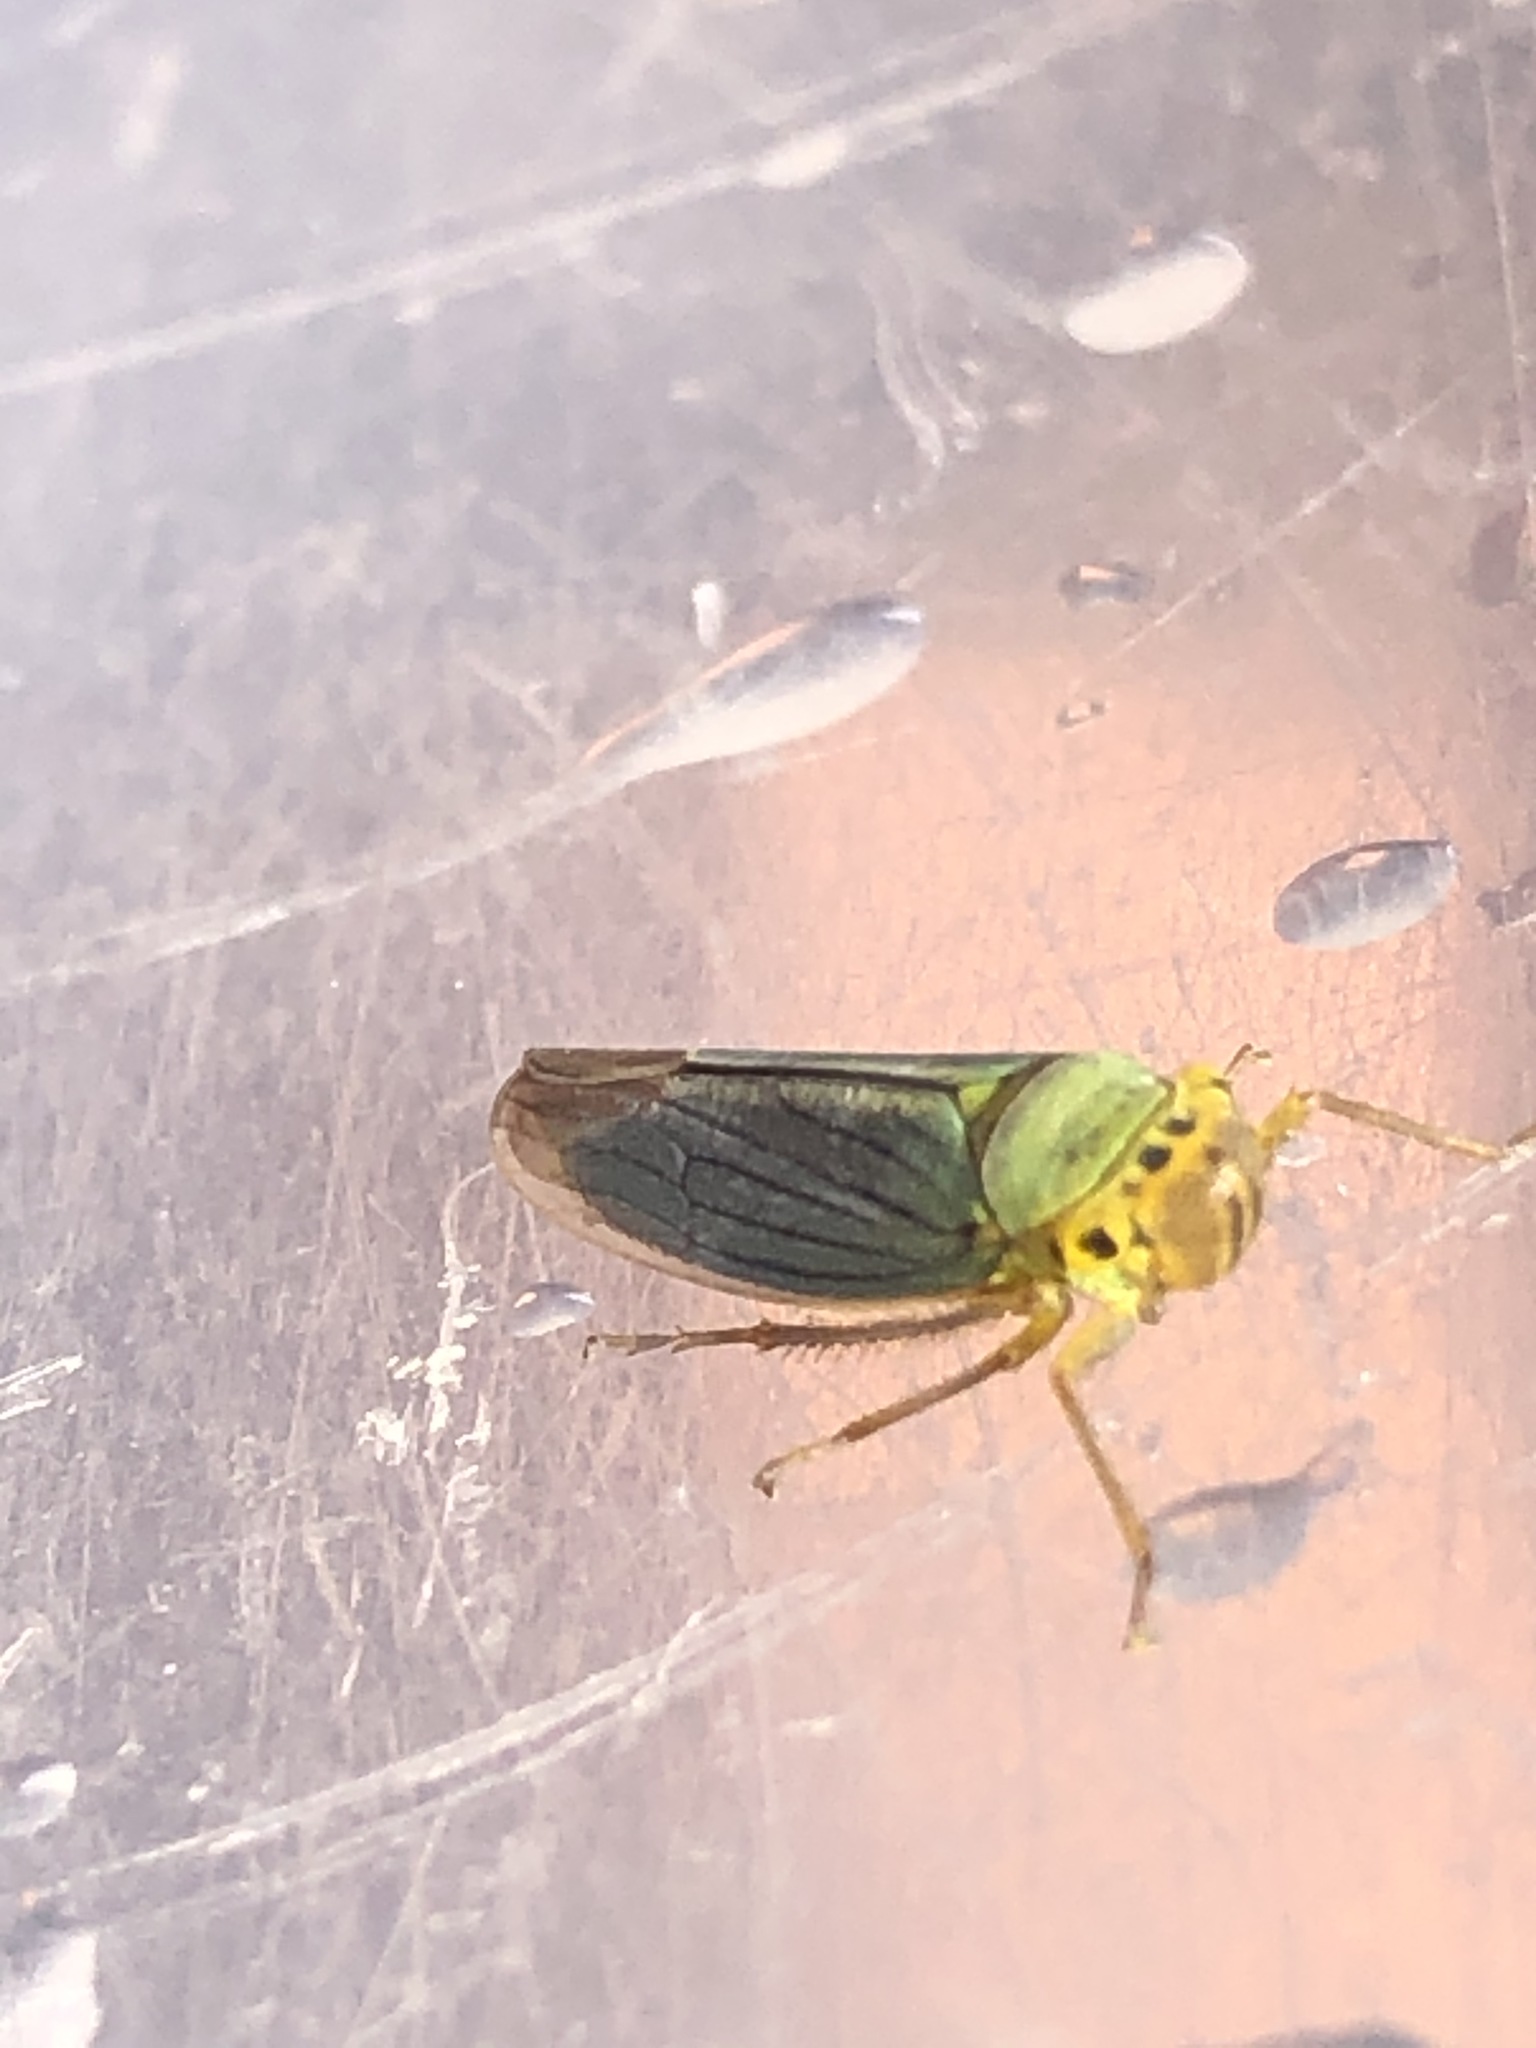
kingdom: Animalia
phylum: Arthropoda
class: Insecta
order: Hemiptera
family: Cicadellidae
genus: Cicadella
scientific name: Cicadella viridis
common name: Leafhopper
